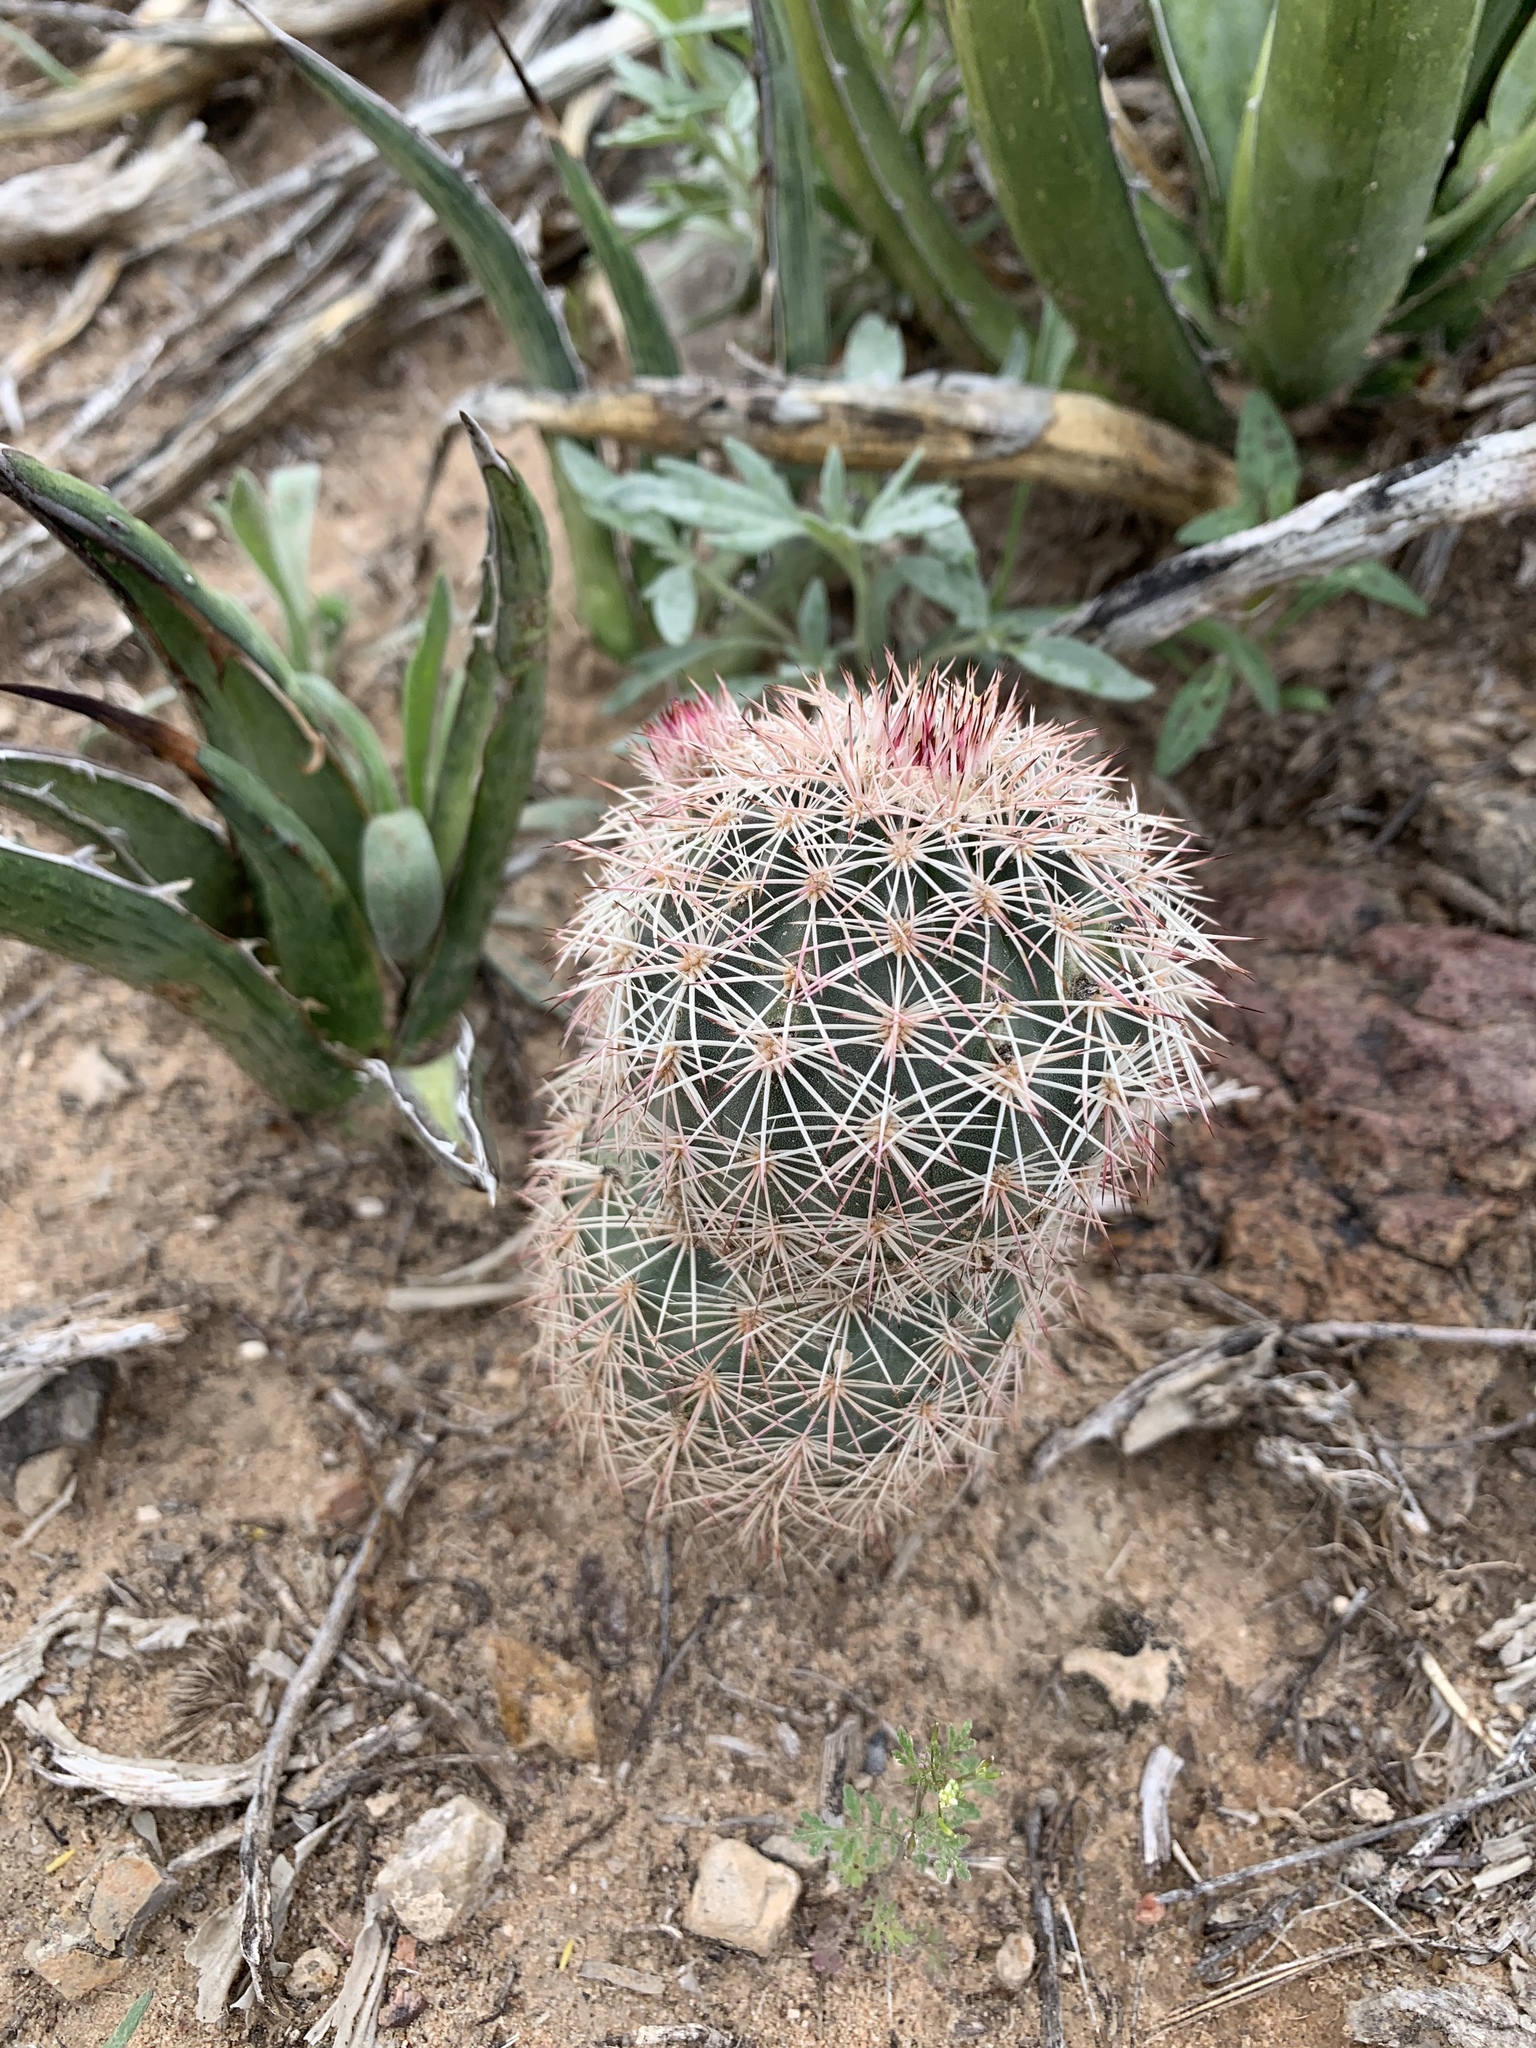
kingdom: Plantae
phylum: Tracheophyta
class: Magnoliopsida
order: Caryophyllales
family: Cactaceae
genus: Echinocereus
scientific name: Echinocereus dasyacanthus
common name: Spiny hedgehog cactus
